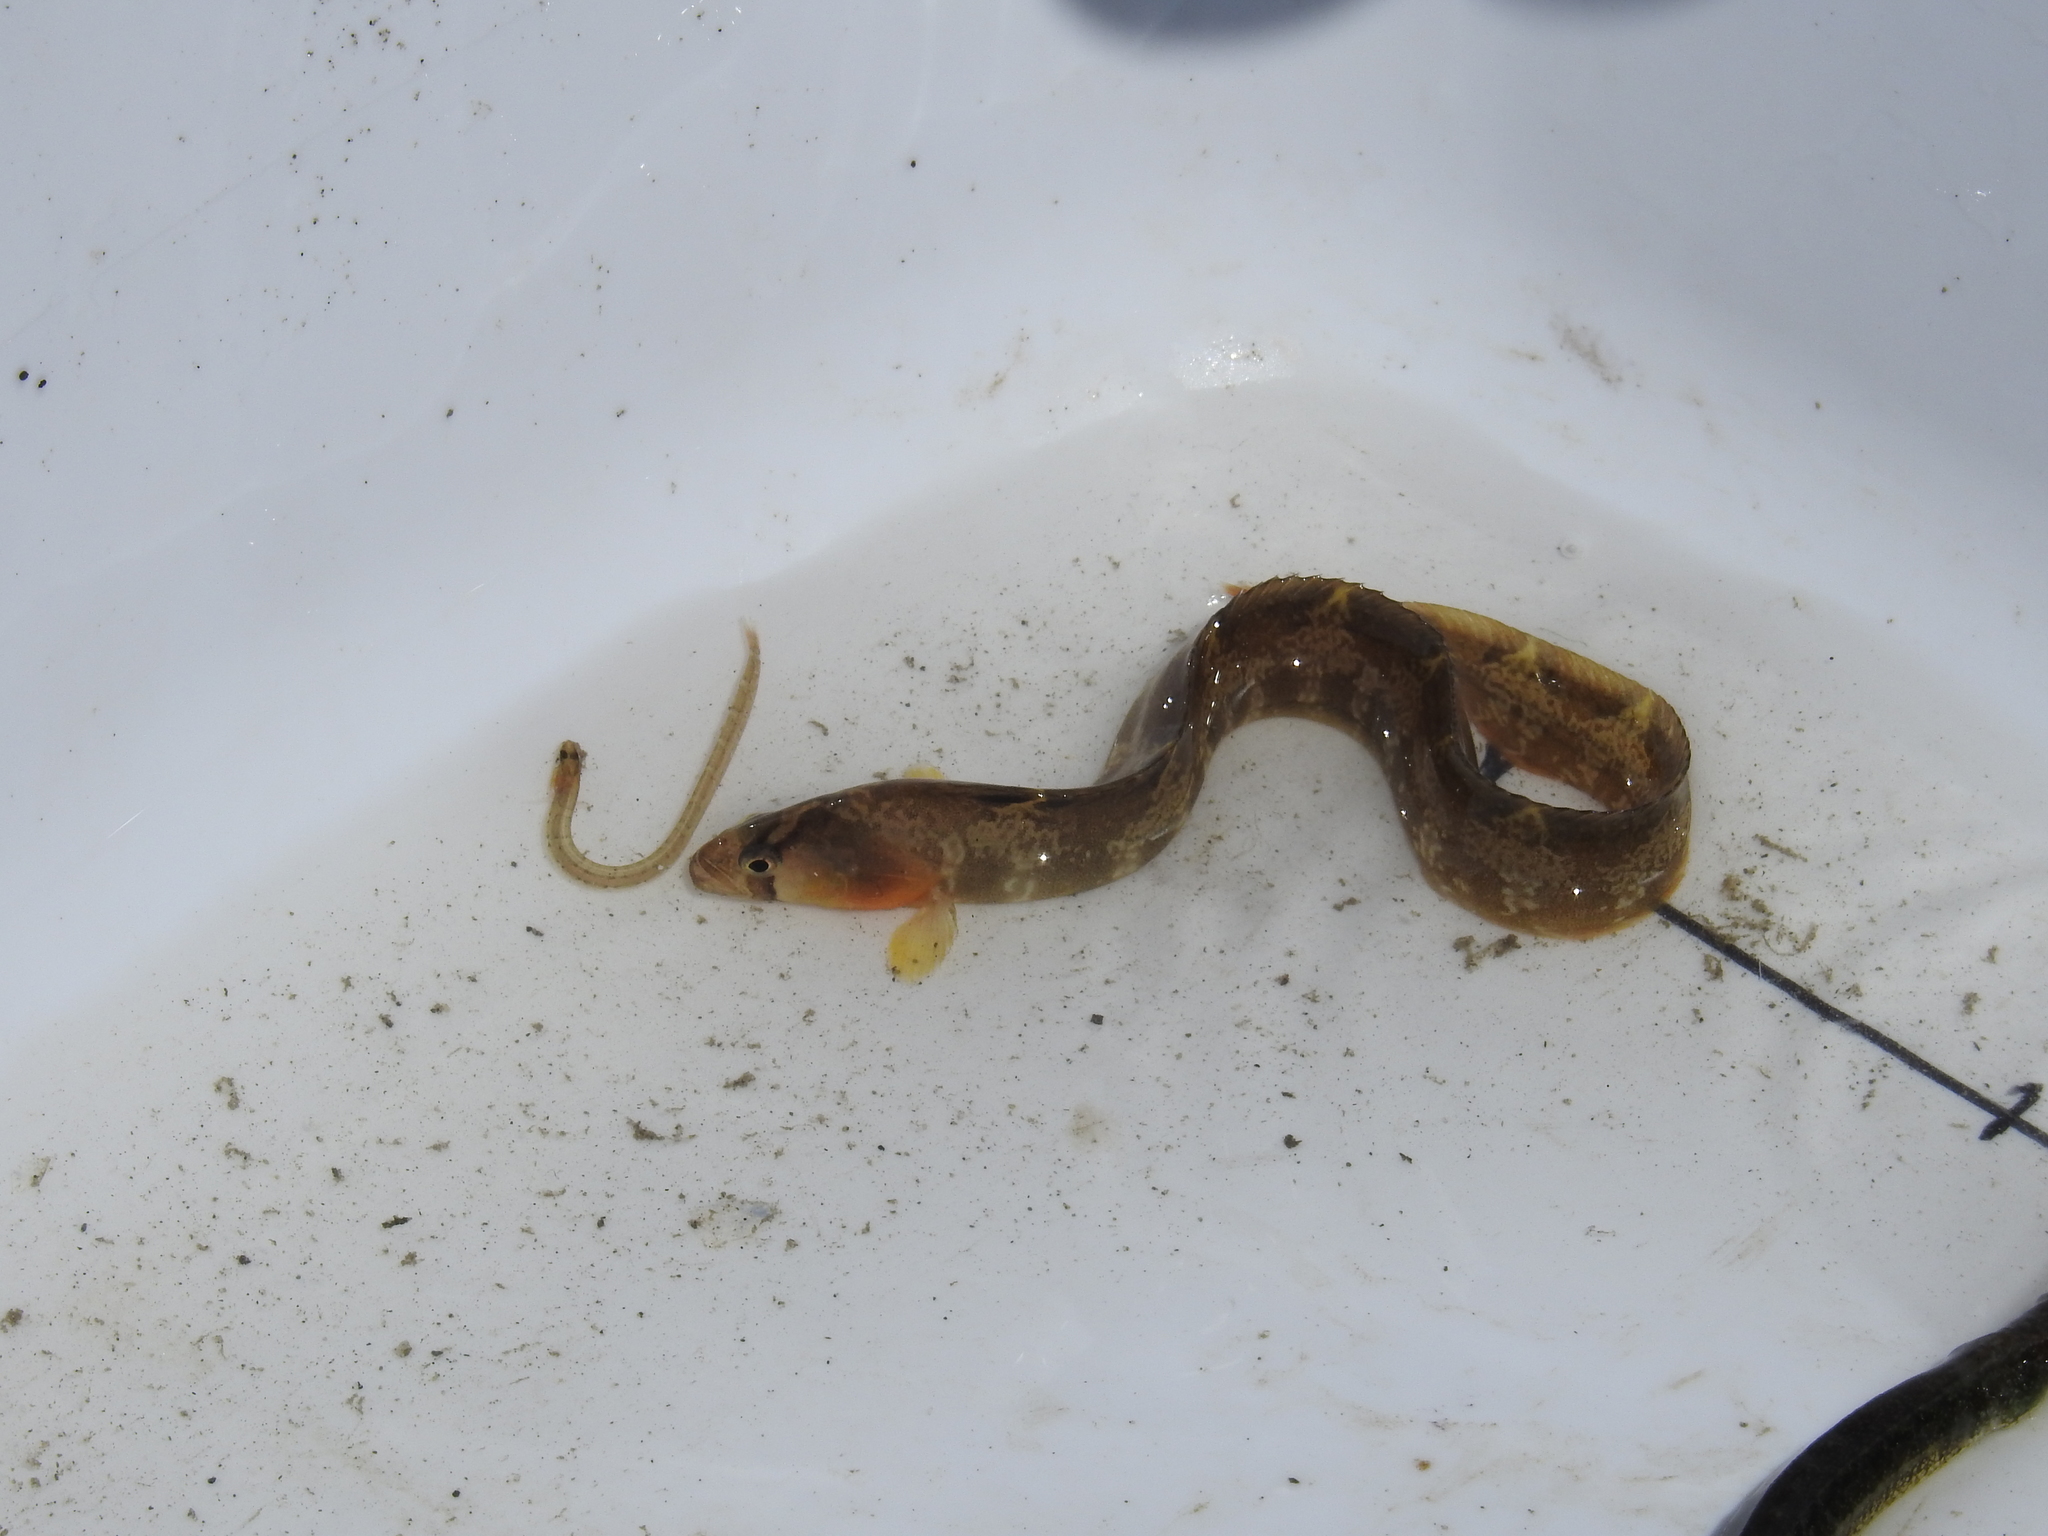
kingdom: Animalia
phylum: Chordata
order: Perciformes
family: Pholidae
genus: Pholis
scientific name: Pholis ornata
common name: Saddleback gunnel
